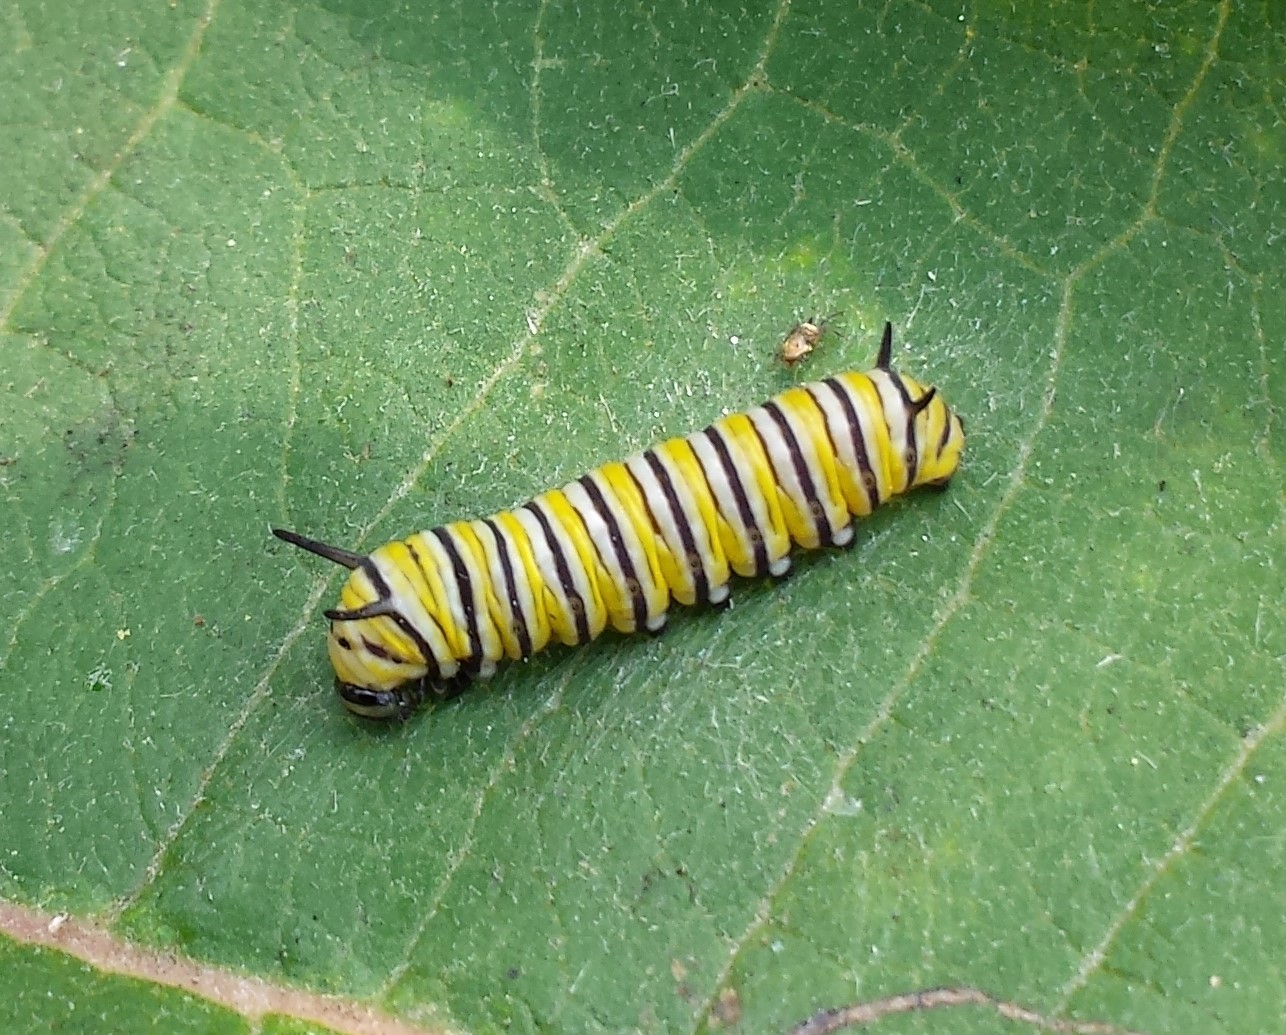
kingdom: Animalia
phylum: Arthropoda
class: Insecta
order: Lepidoptera
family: Nymphalidae
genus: Danaus
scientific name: Danaus plexippus
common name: Monarch
